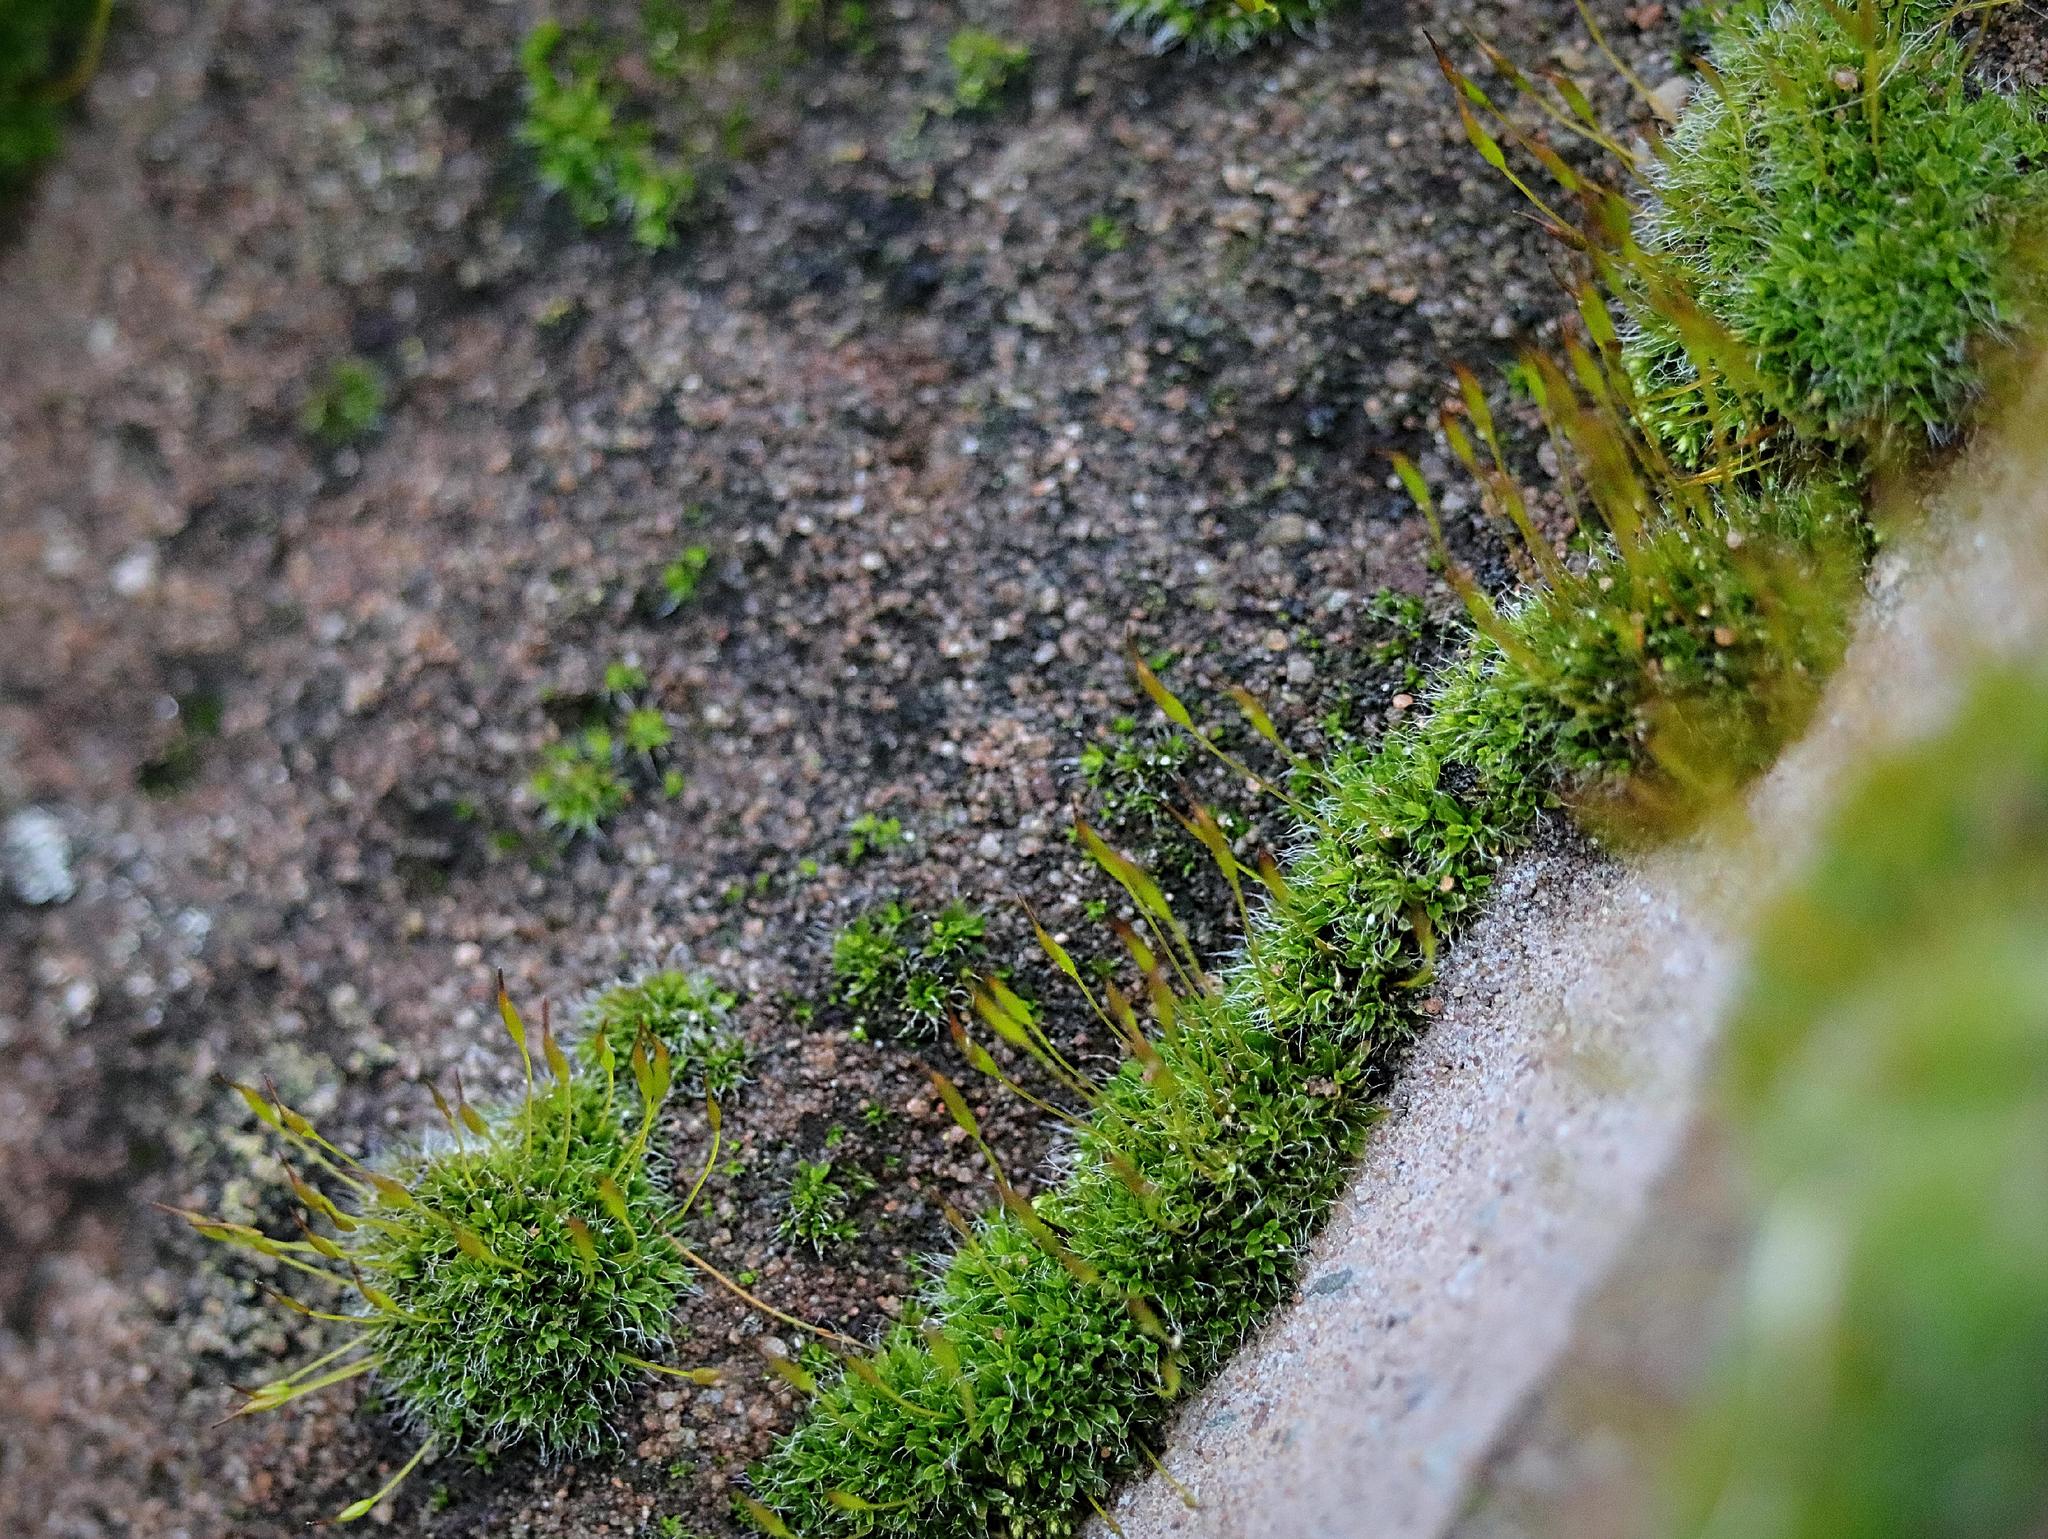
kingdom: Plantae
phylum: Bryophyta
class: Bryopsida
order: Pottiales
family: Pottiaceae
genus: Tortula
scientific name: Tortula muralis
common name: Wall screw-moss
